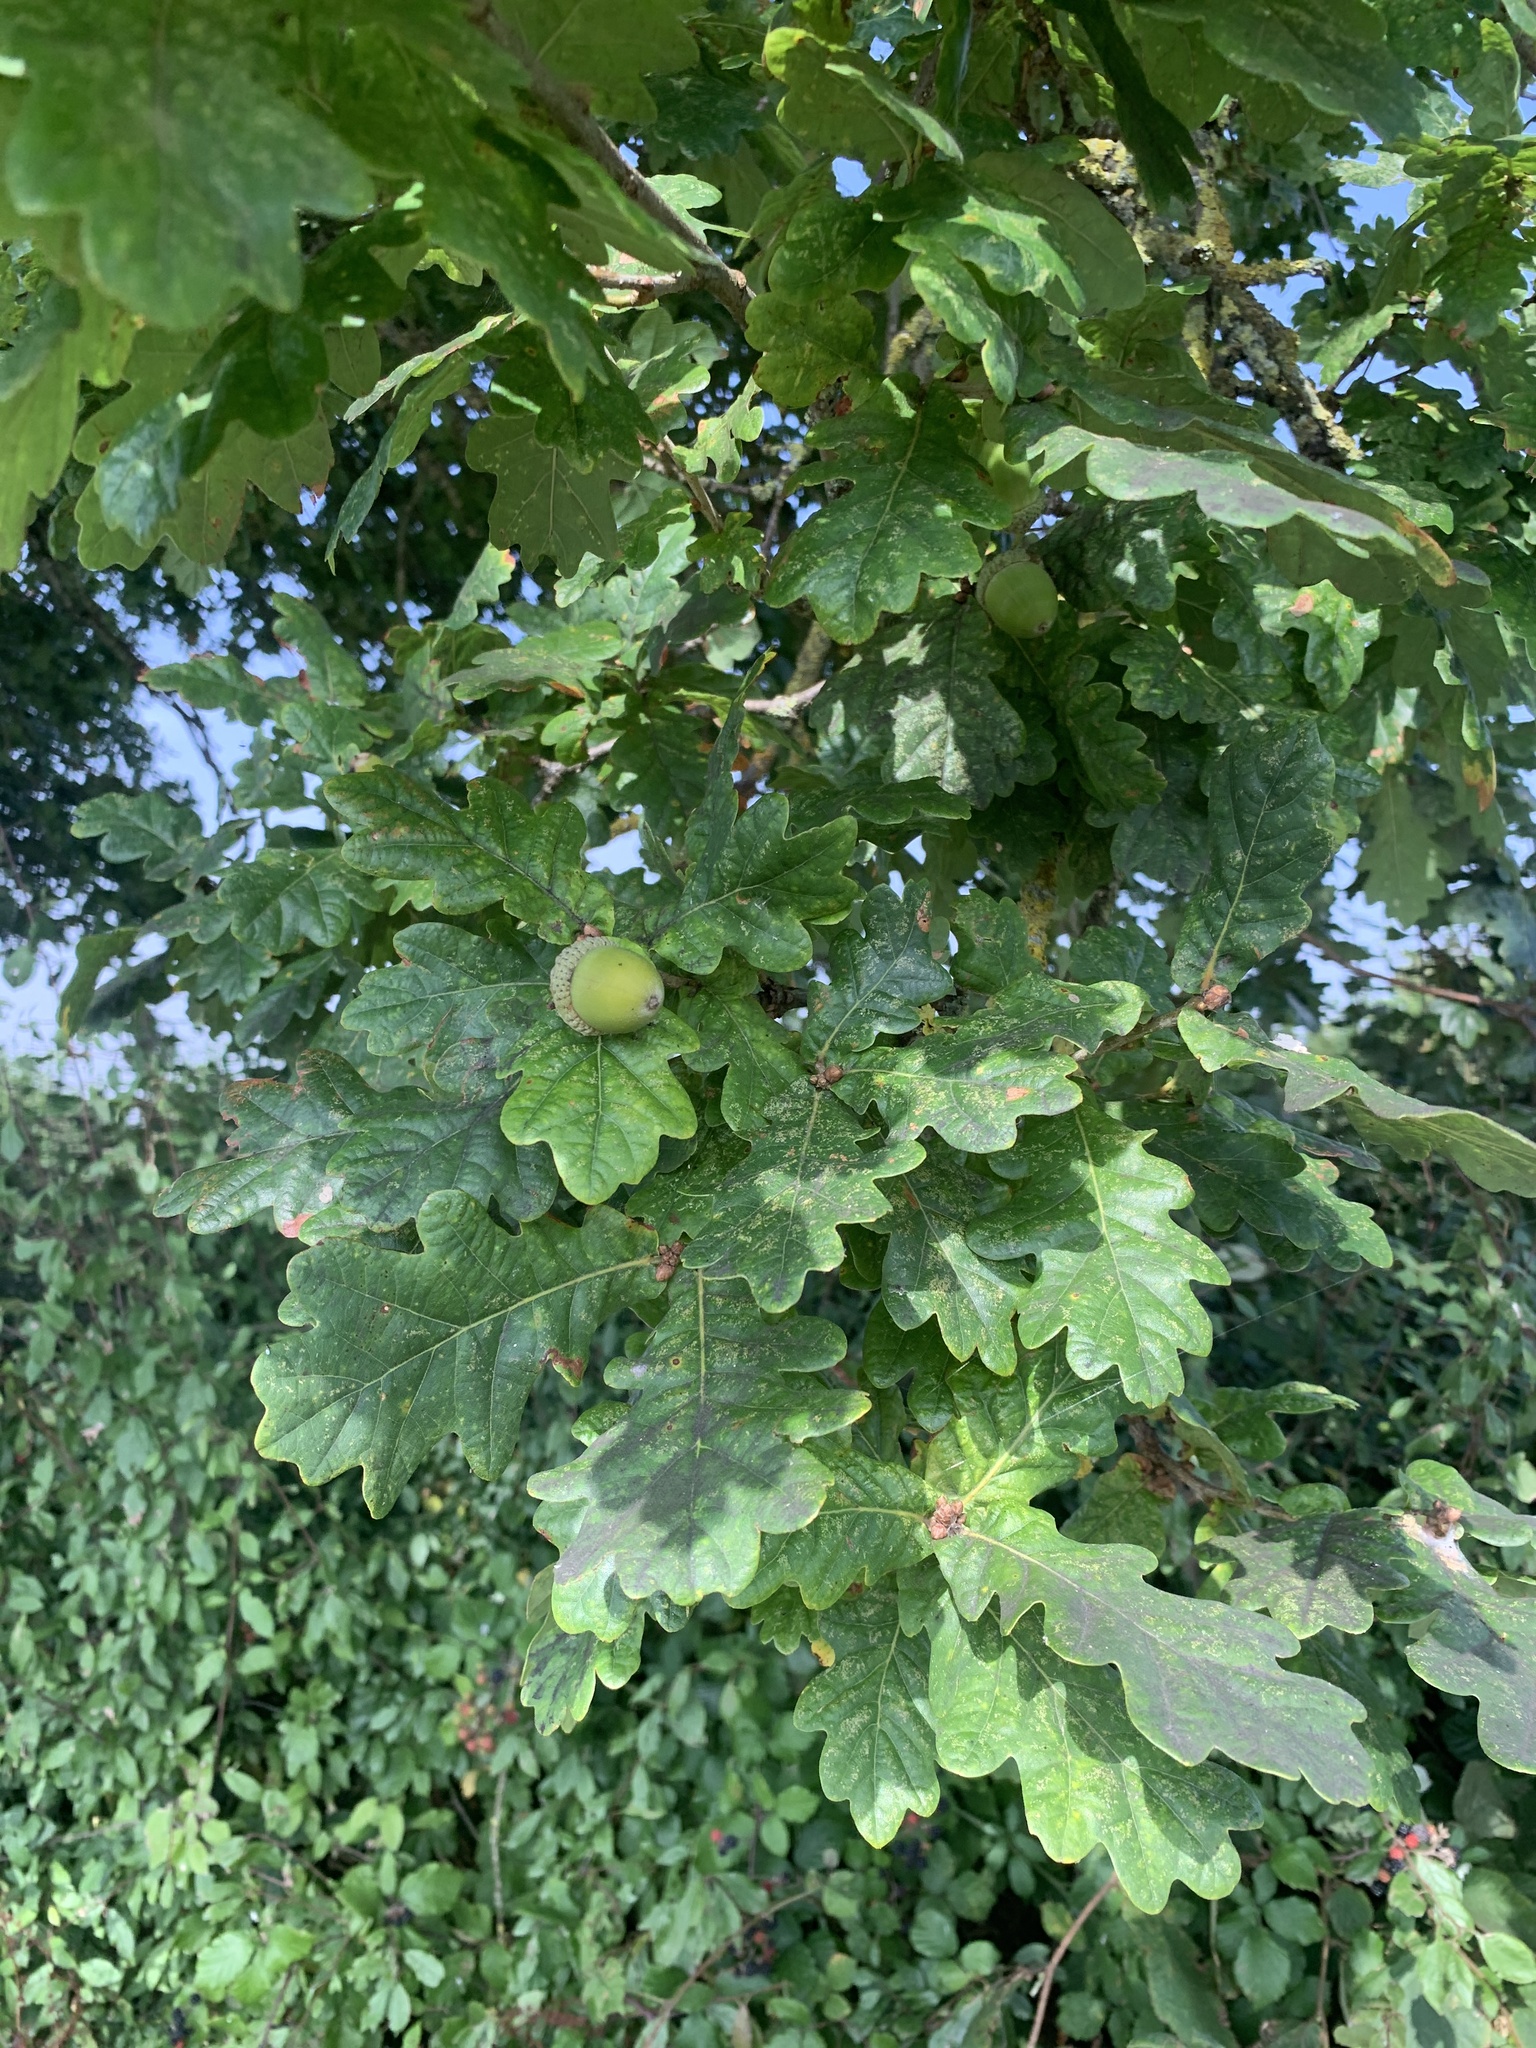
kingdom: Plantae
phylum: Tracheophyta
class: Magnoliopsida
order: Fagales
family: Fagaceae
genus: Quercus
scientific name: Quercus robur
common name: Pedunculate oak
